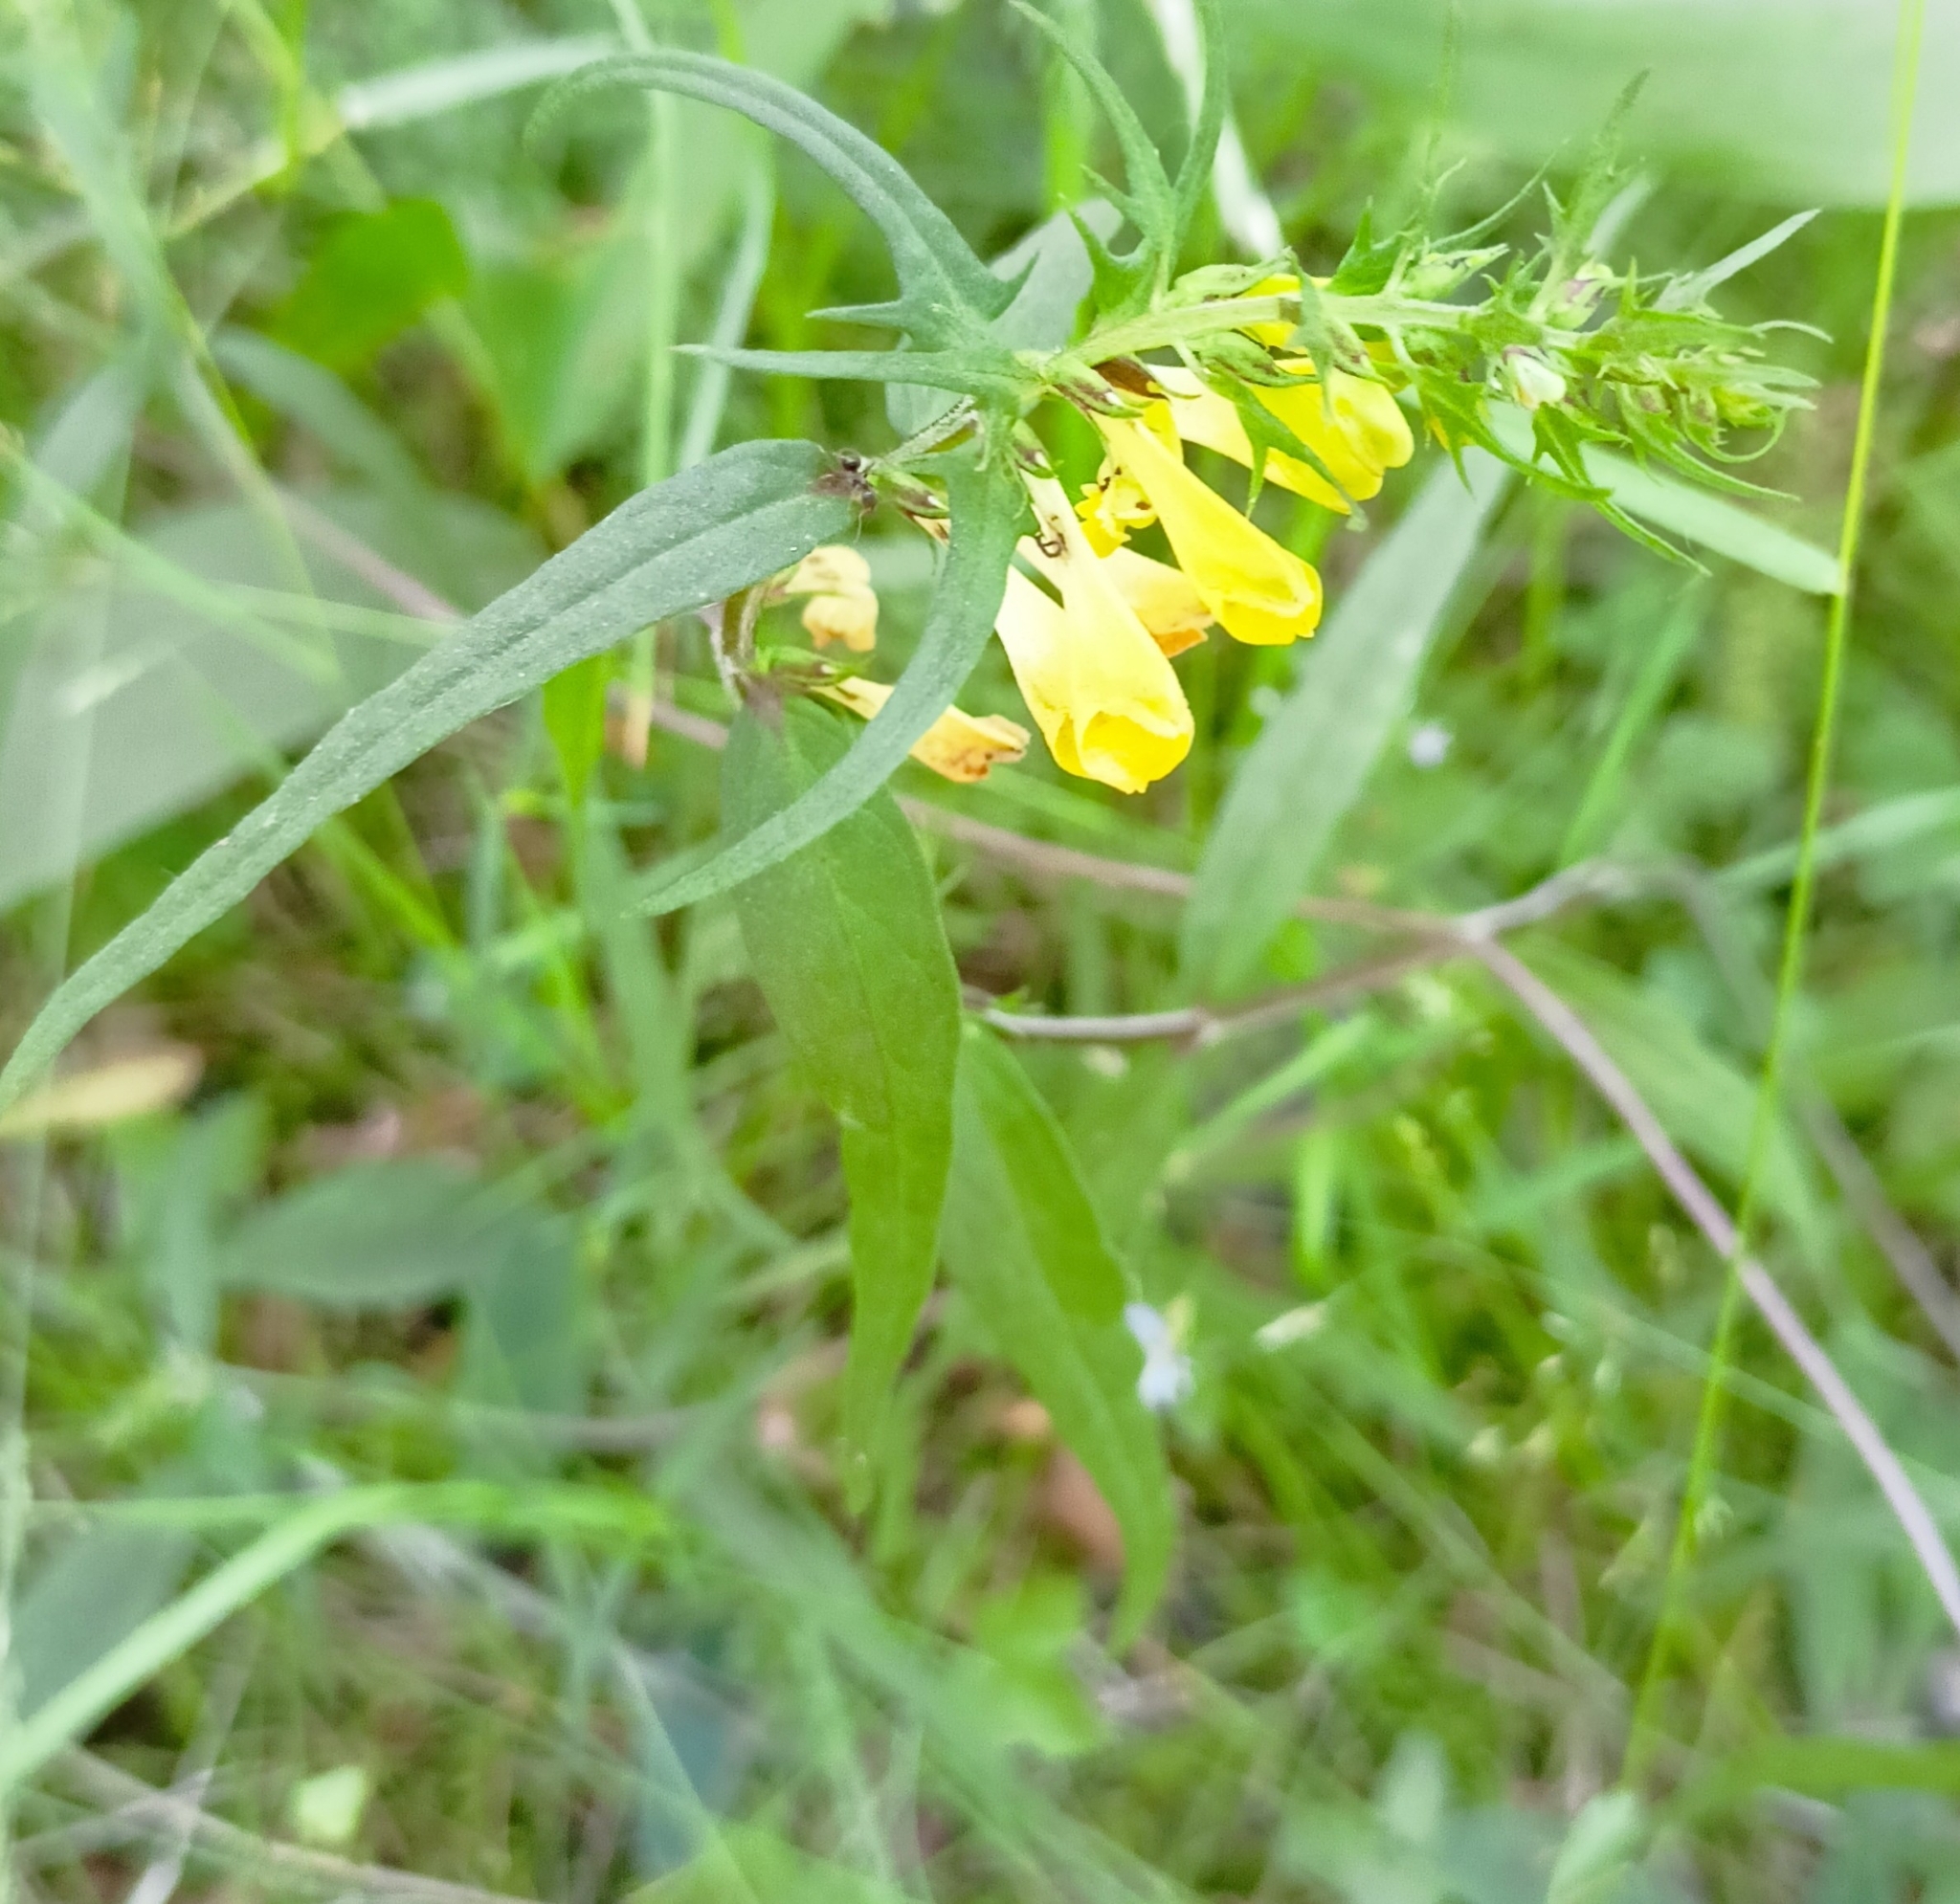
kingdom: Plantae
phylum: Tracheophyta
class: Magnoliopsida
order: Lamiales
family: Orobanchaceae
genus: Melampyrum
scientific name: Melampyrum pratense
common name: Common cow-wheat
